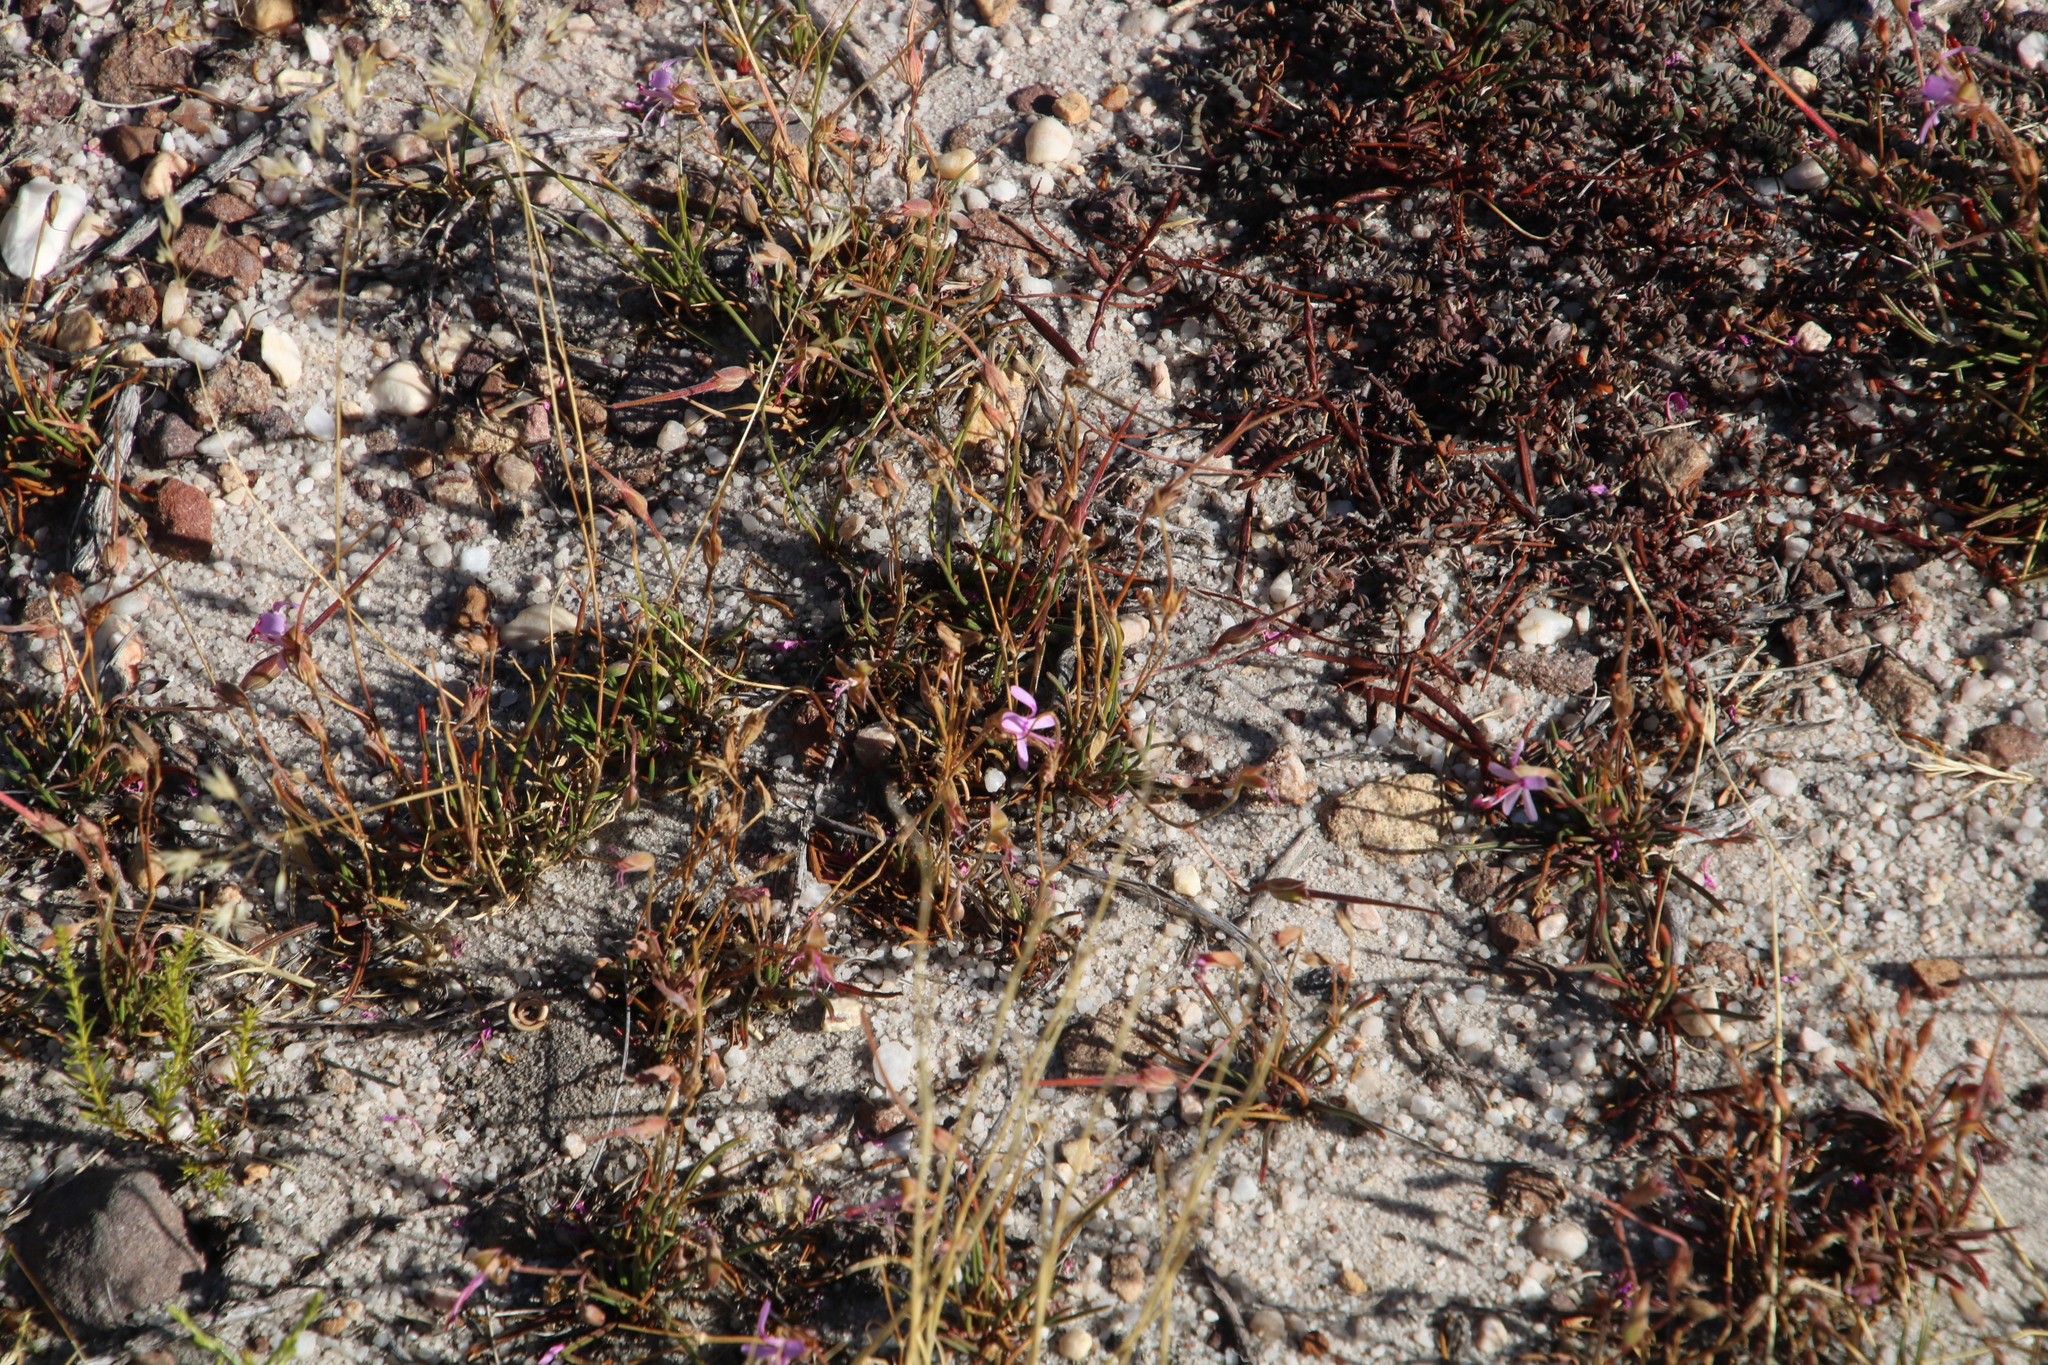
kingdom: Plantae
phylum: Tracheophyta
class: Magnoliopsida
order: Geraniales
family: Geraniaceae
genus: Pelargonium
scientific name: Pelargonium coronopifolium
